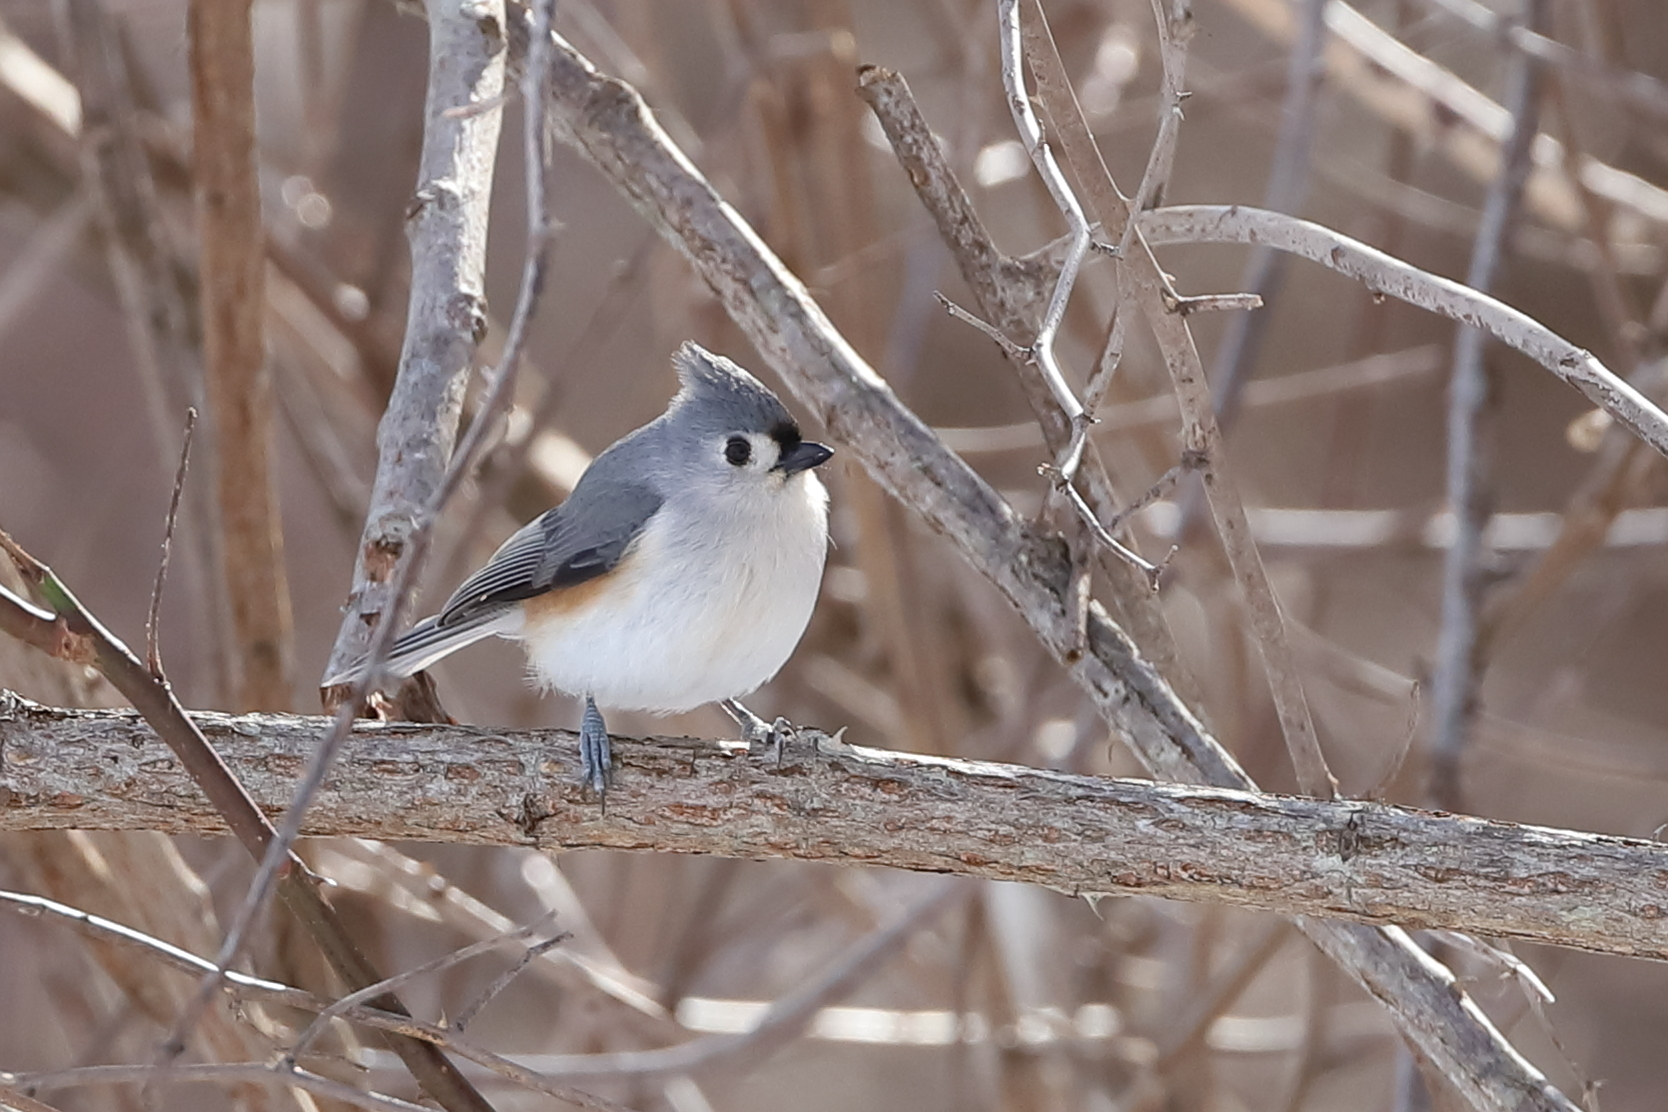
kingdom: Animalia
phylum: Chordata
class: Aves
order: Passeriformes
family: Paridae
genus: Baeolophus
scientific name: Baeolophus bicolor
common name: Tufted titmouse
